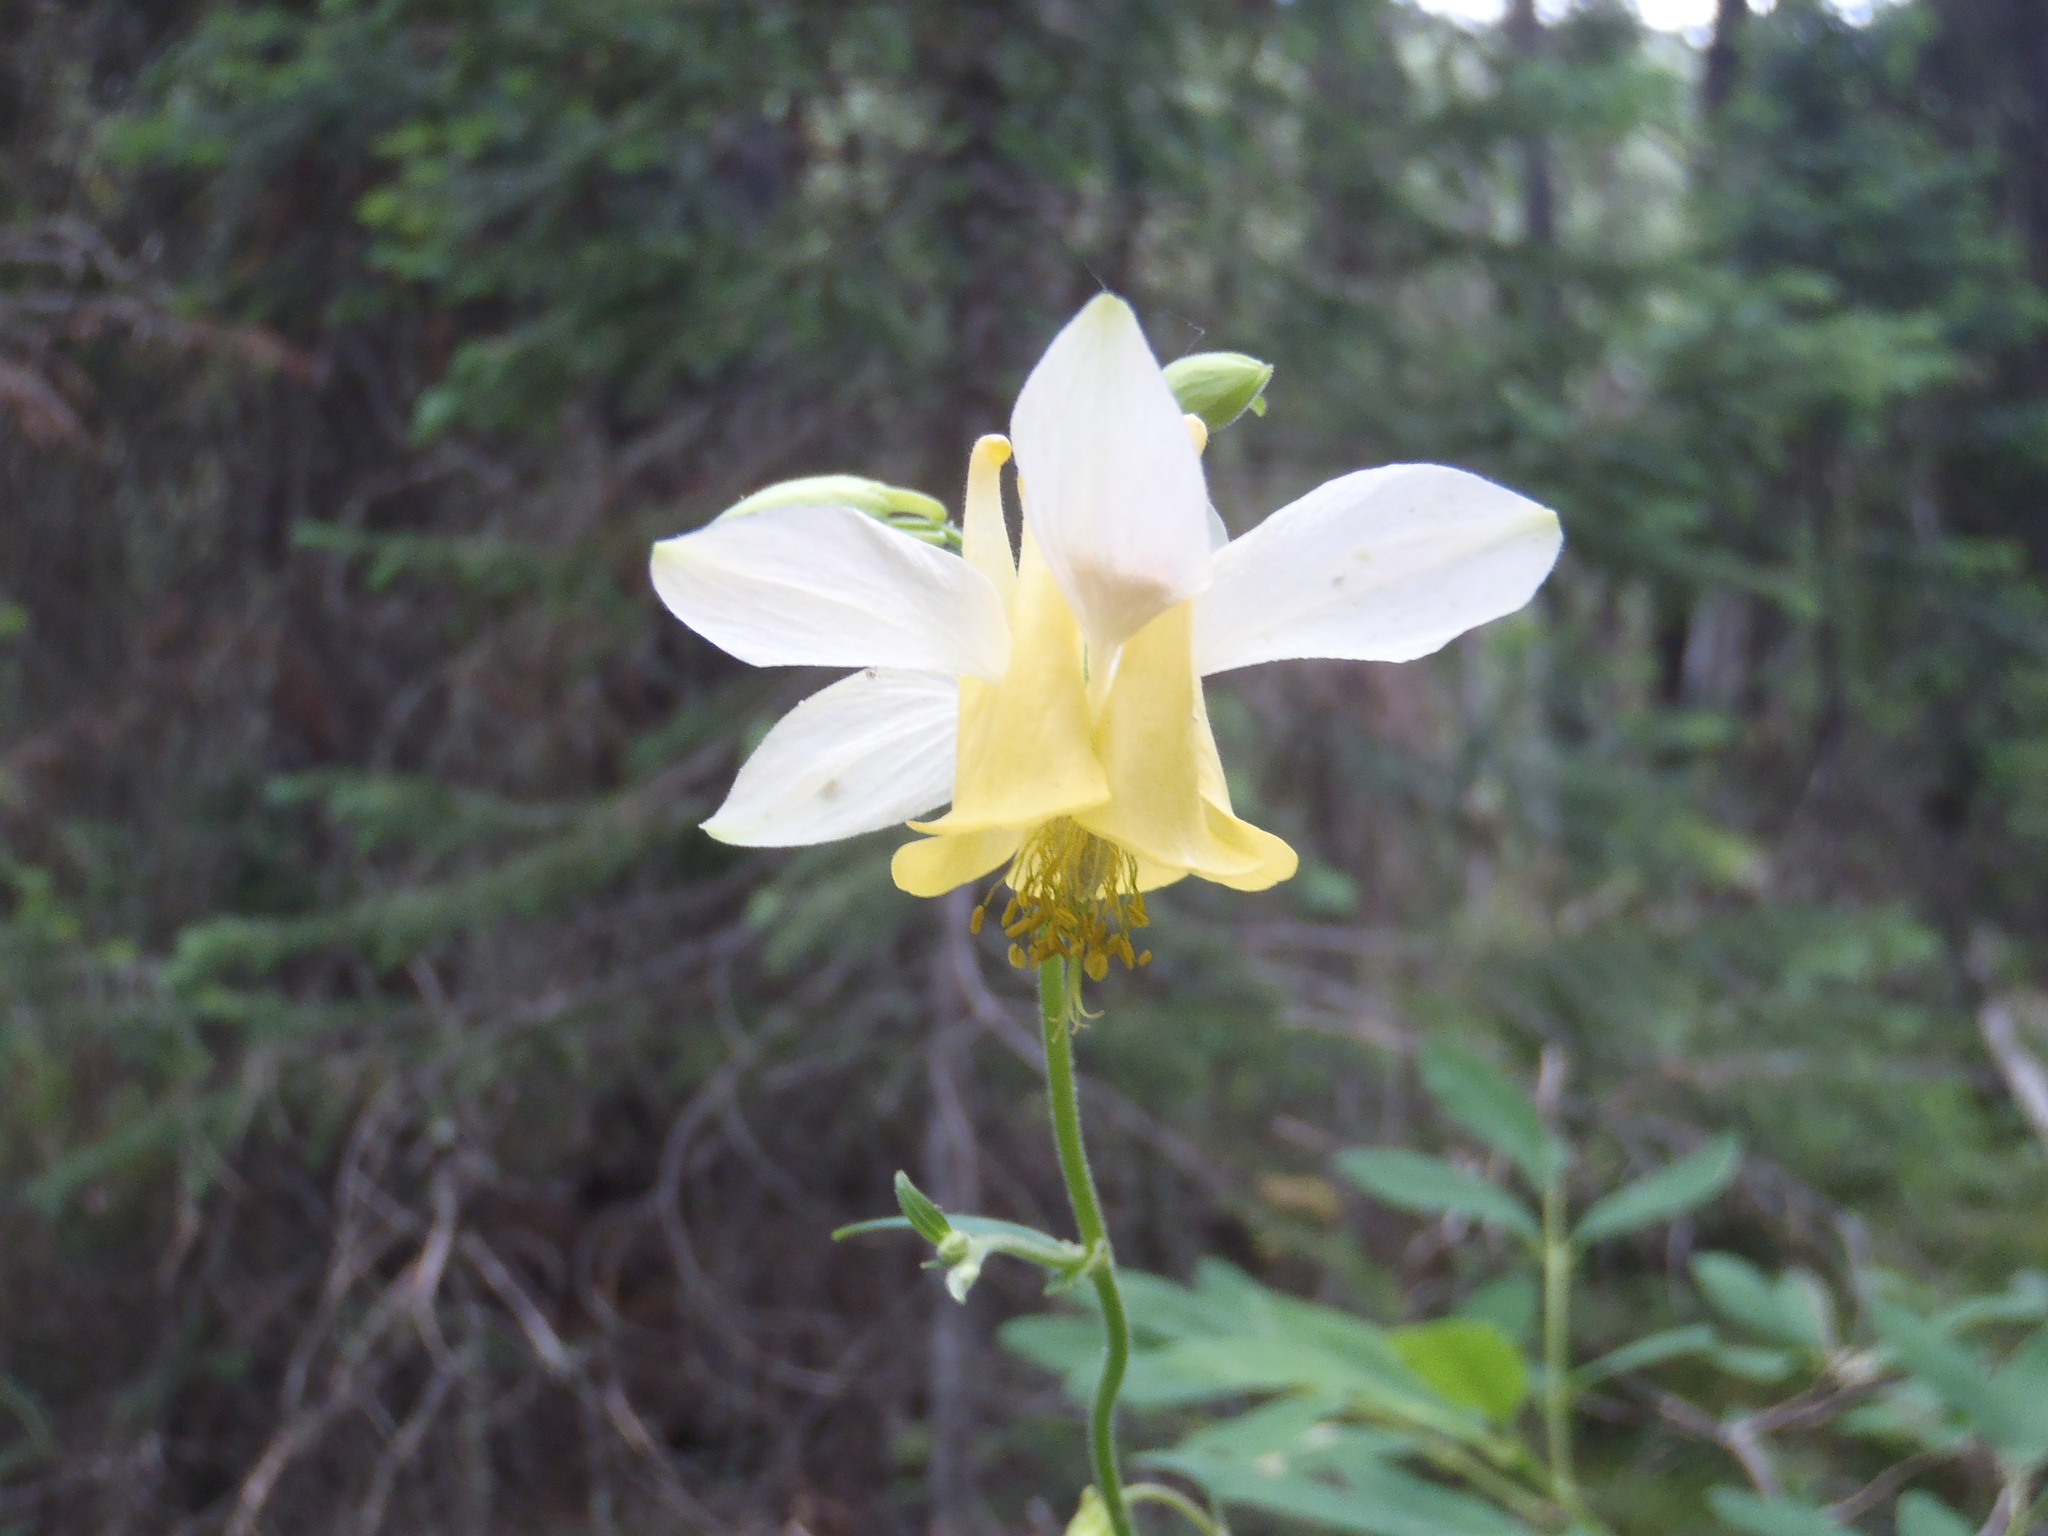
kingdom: Plantae
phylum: Tracheophyta
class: Magnoliopsida
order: Ranunculales
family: Ranunculaceae
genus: Aquilegia
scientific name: Aquilegia flavescens
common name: Yellow columbine
